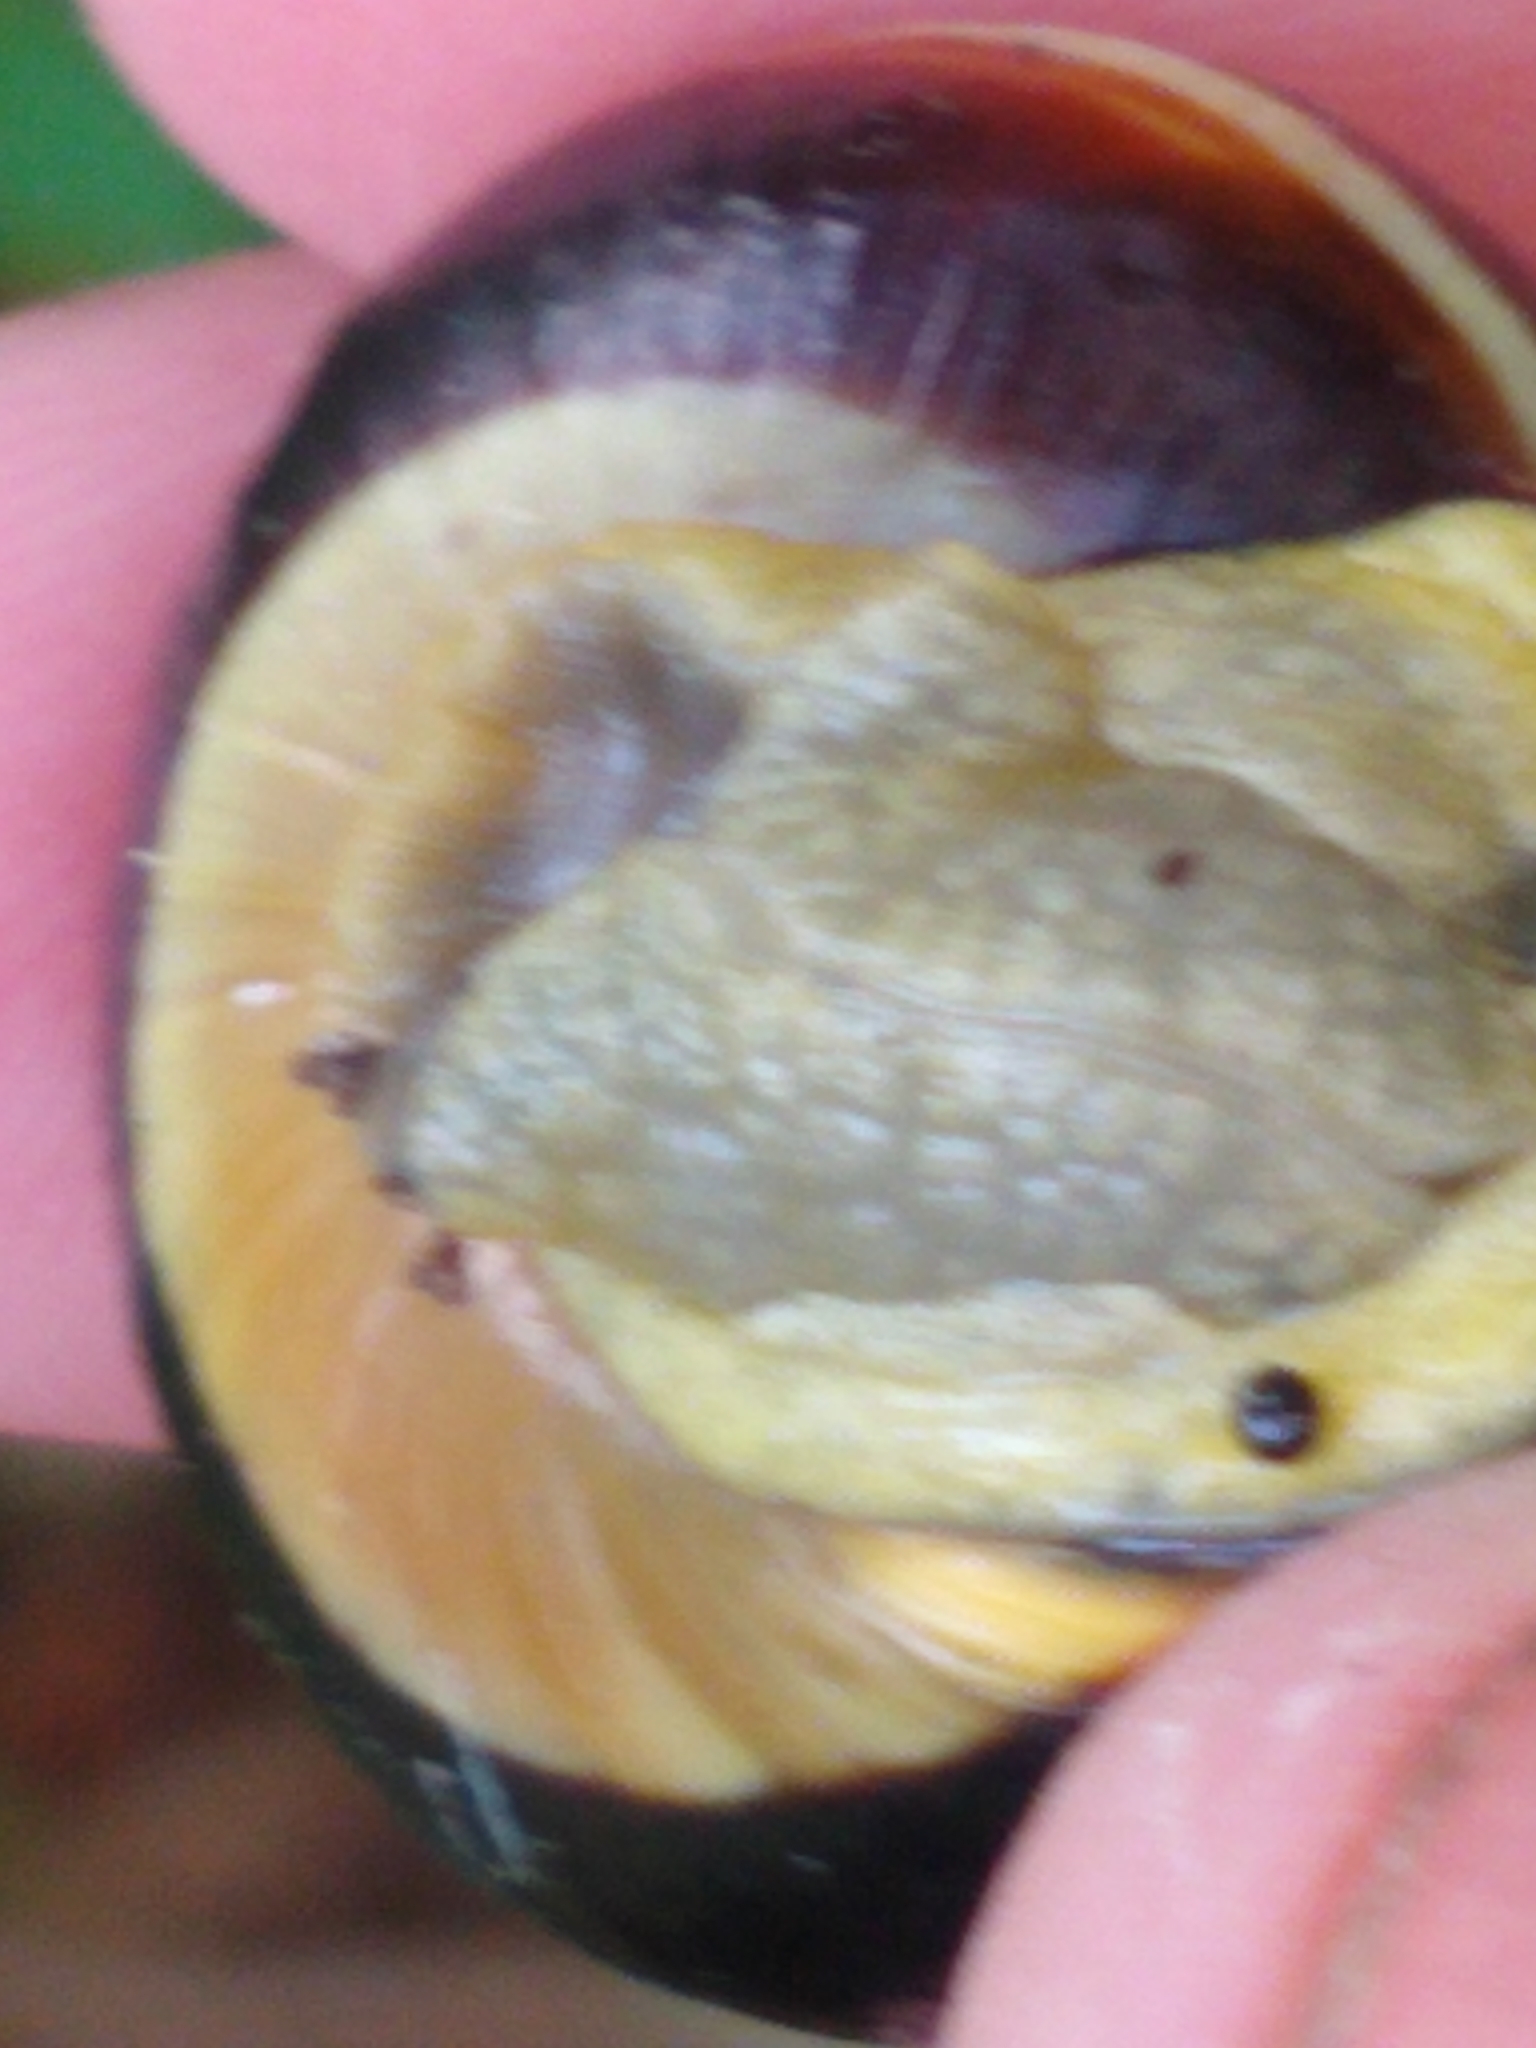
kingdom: Animalia
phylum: Mollusca
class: Gastropoda
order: Stylommatophora
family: Helicidae
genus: Cepaea
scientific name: Cepaea nemoralis
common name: Grovesnail
